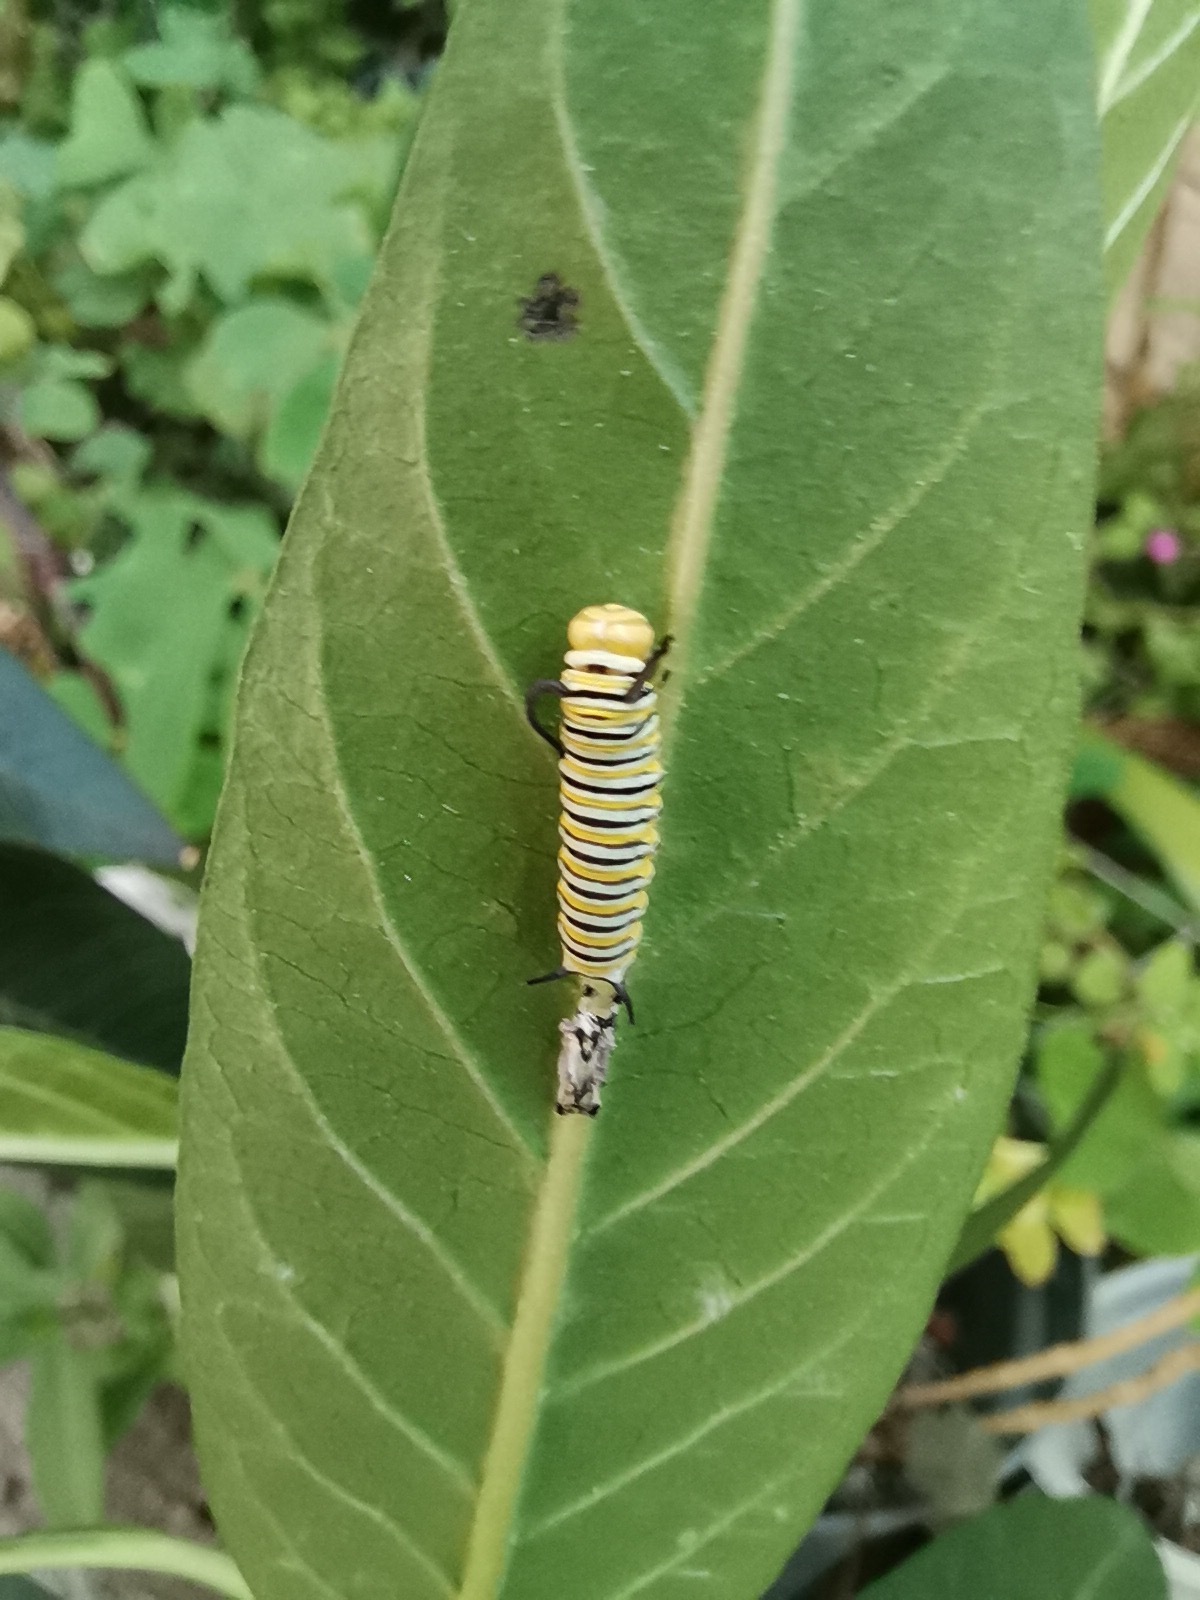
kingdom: Animalia
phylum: Arthropoda
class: Insecta
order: Lepidoptera
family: Nymphalidae
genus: Danaus
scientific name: Danaus plexippus
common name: Monarch
